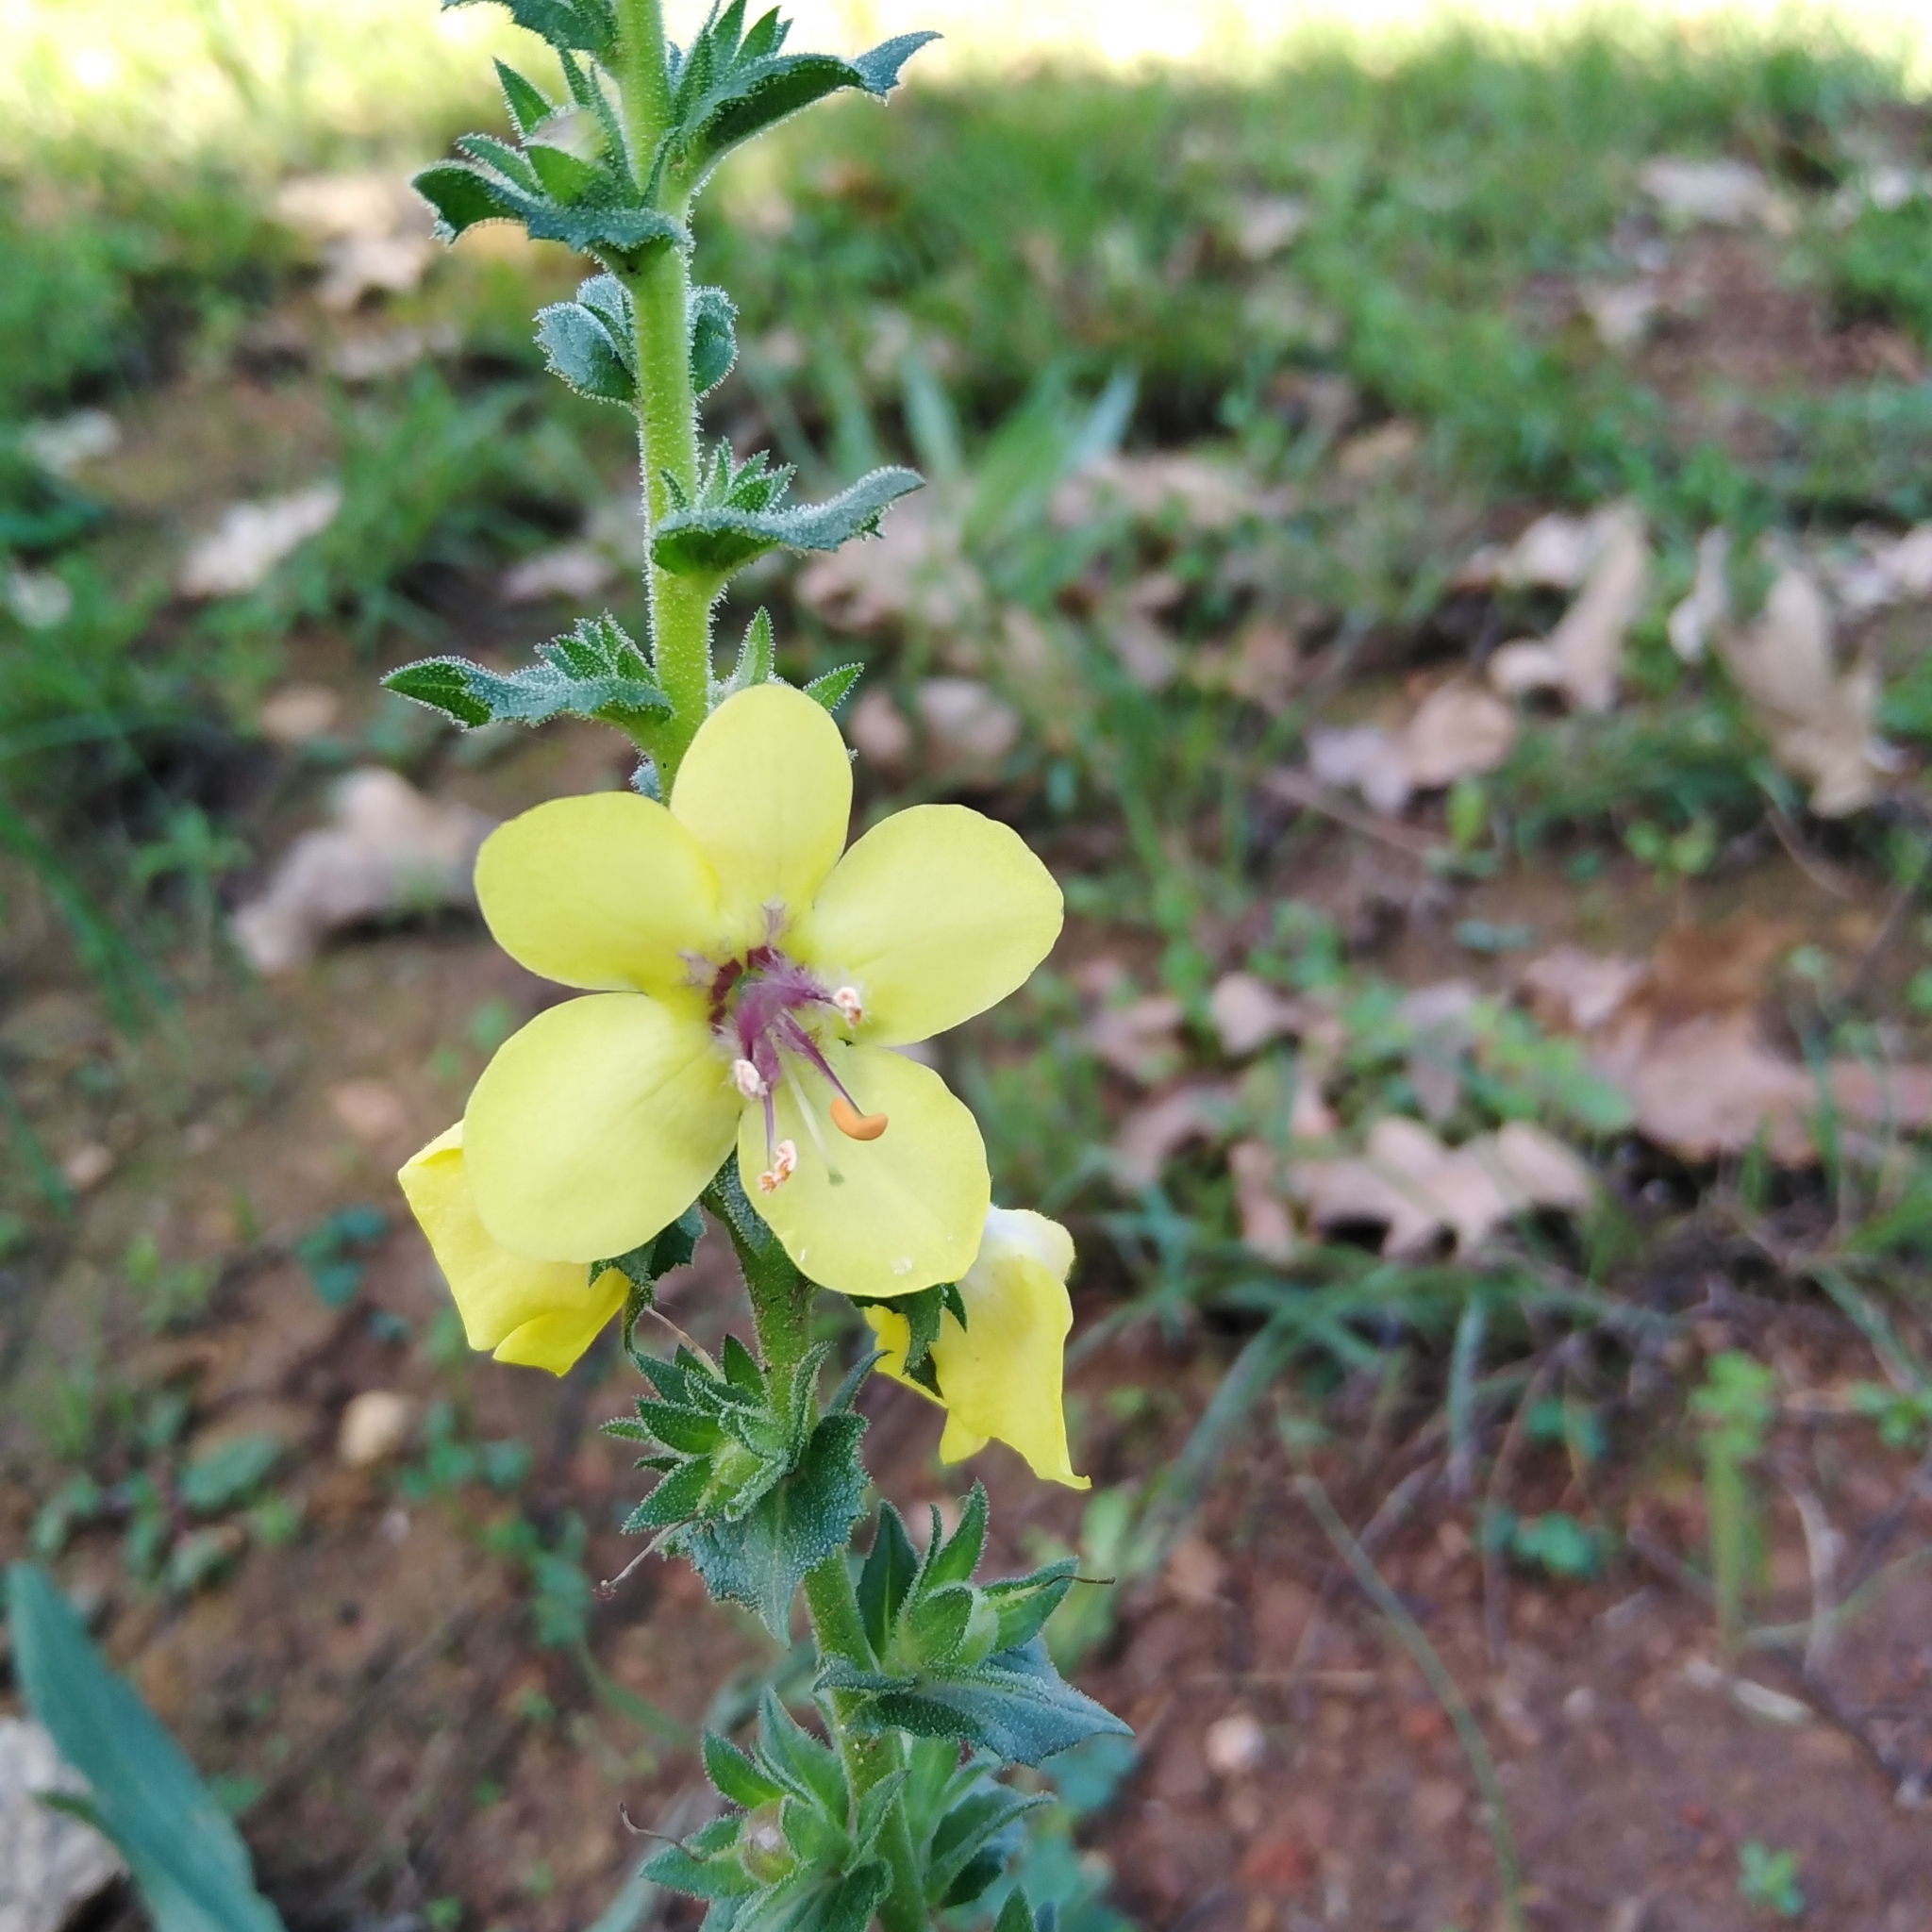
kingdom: Plantae
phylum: Tracheophyta
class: Magnoliopsida
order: Lamiales
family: Scrophulariaceae
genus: Verbascum
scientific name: Verbascum virgatum
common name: Twiggy mullein
